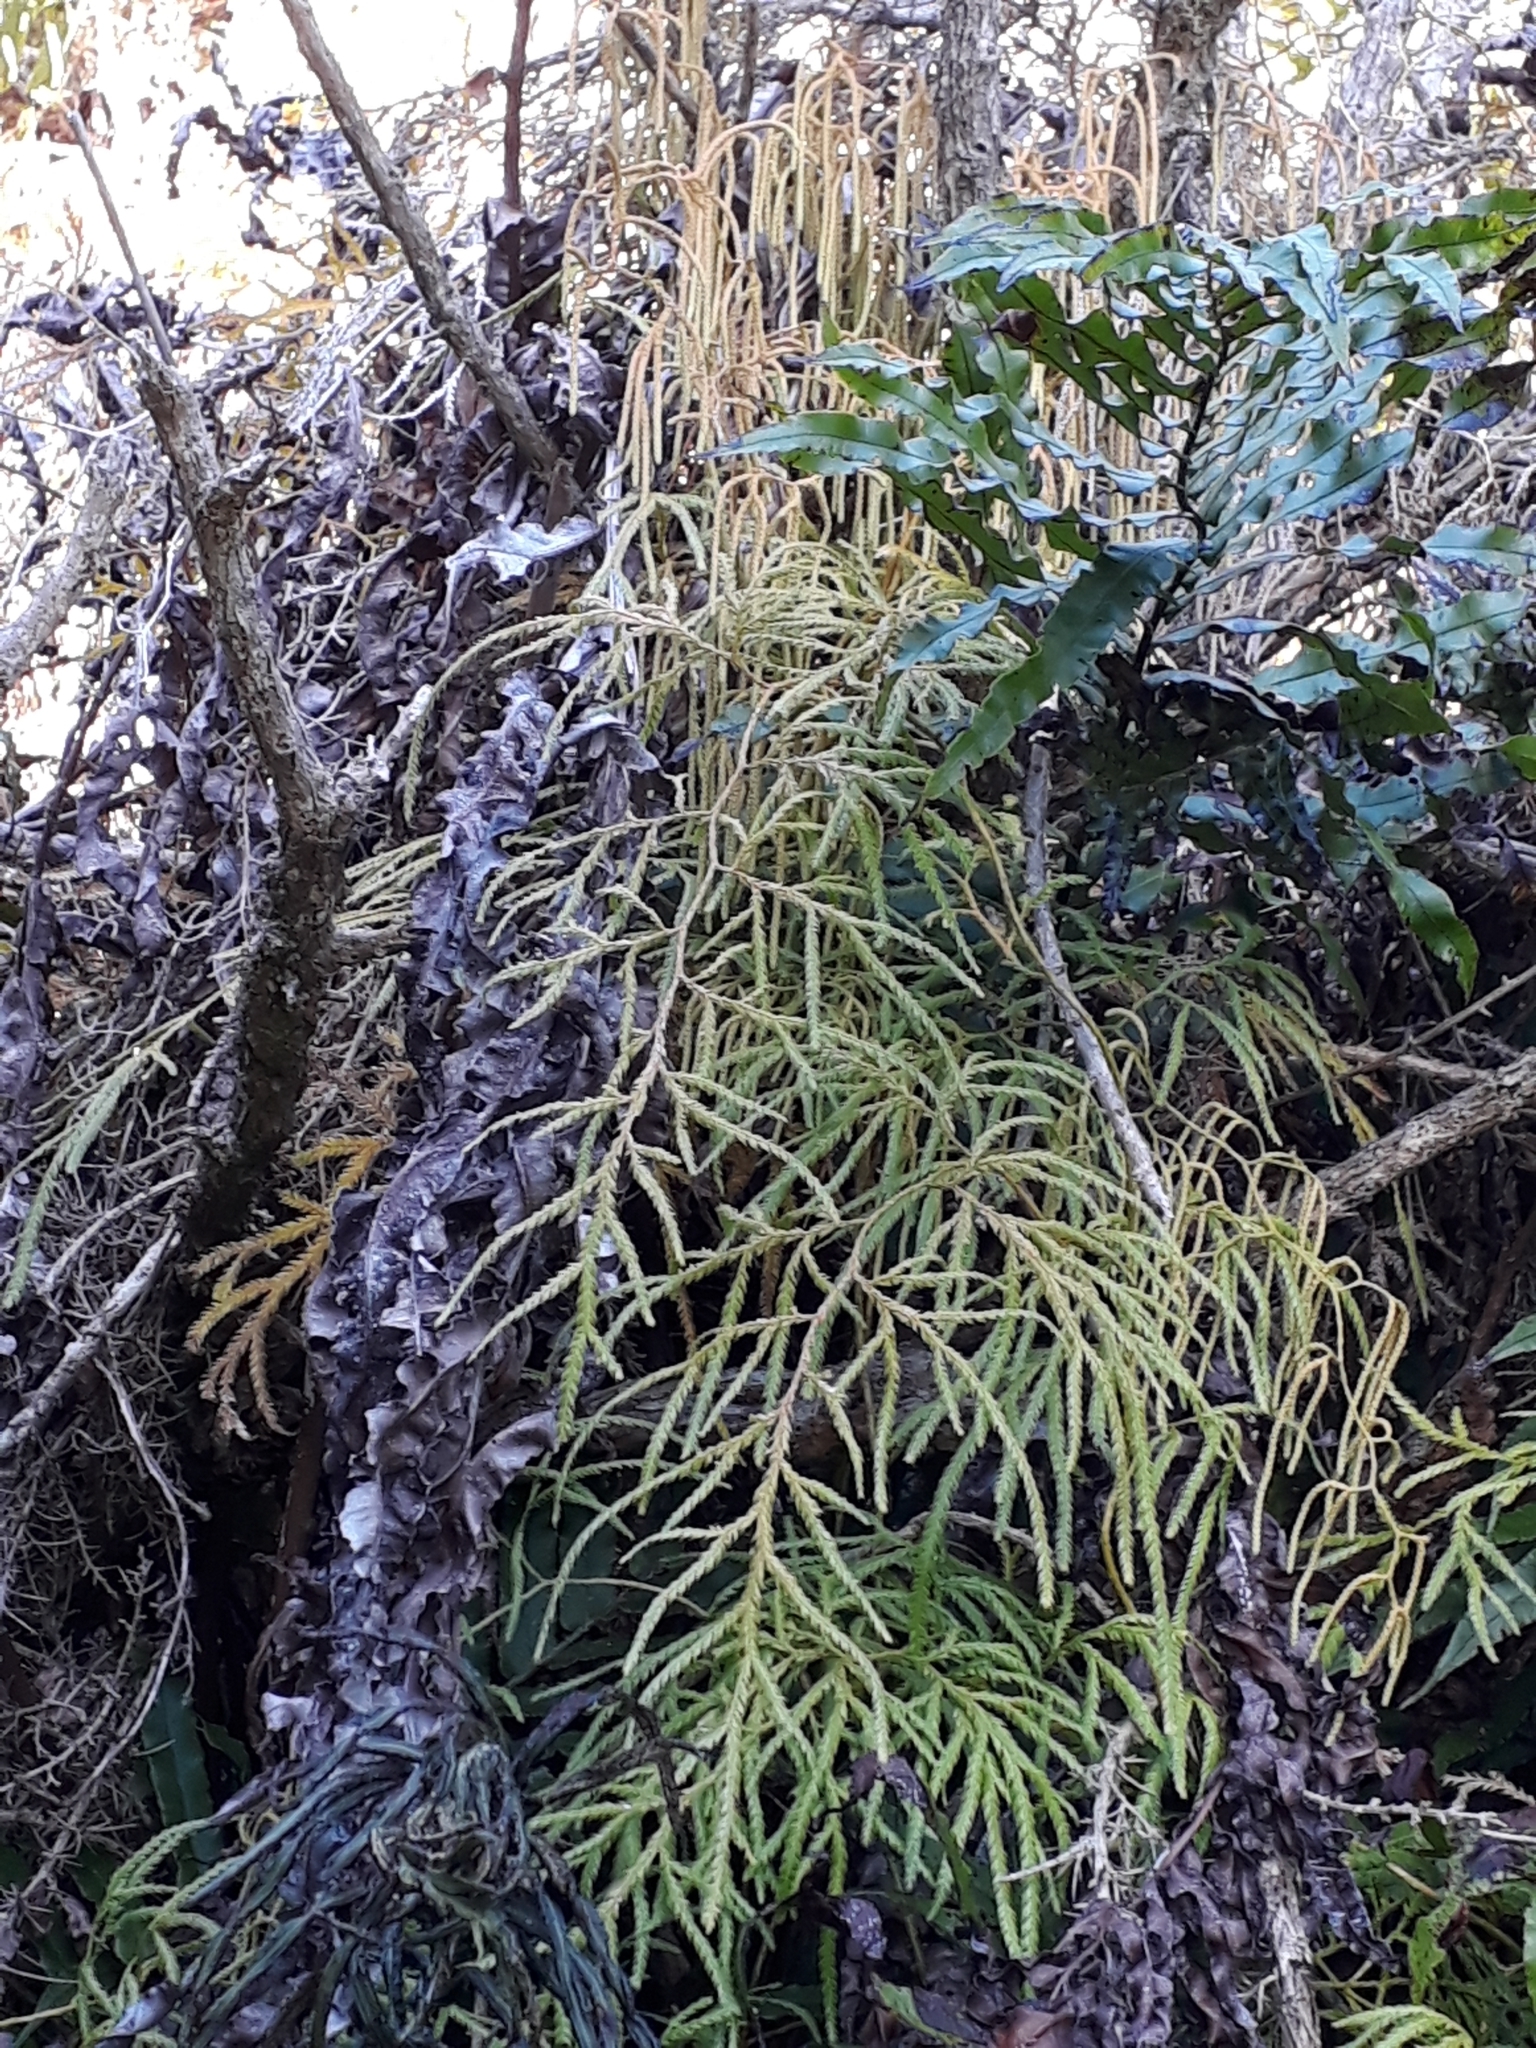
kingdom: Plantae
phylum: Tracheophyta
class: Lycopodiopsida
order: Lycopodiales
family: Lycopodiaceae
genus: Lycopodium
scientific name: Lycopodium volubile
